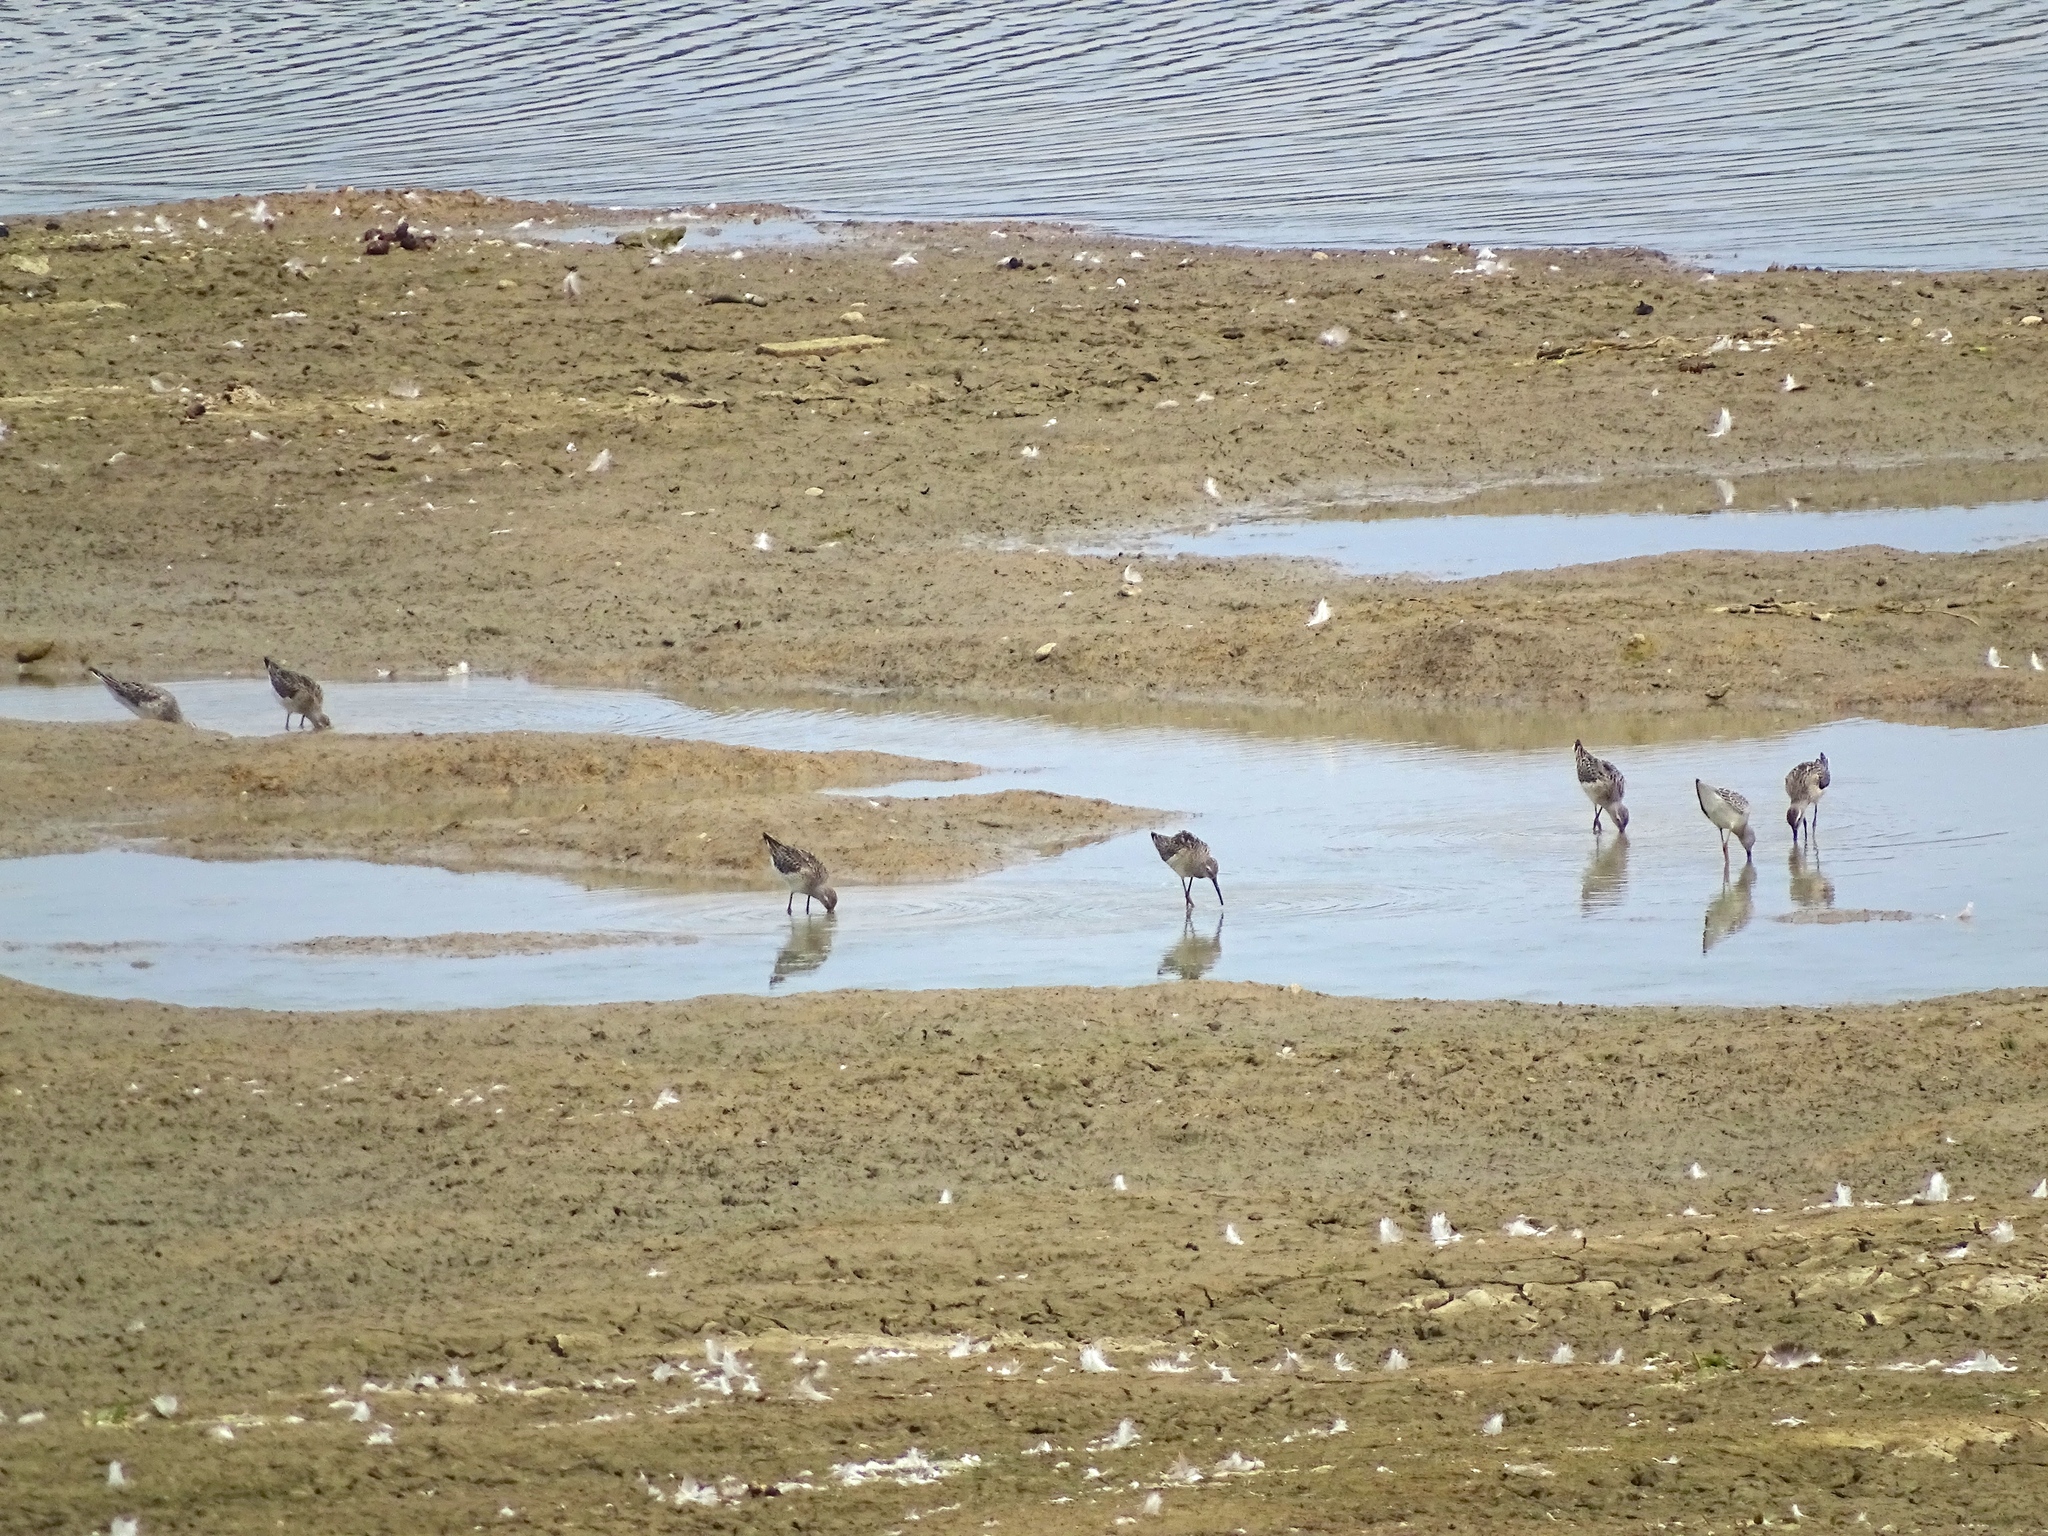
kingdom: Animalia
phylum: Chordata
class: Aves
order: Charadriiformes
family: Scolopacidae
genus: Calidris
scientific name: Calidris himantopus
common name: Stilt sandpiper
